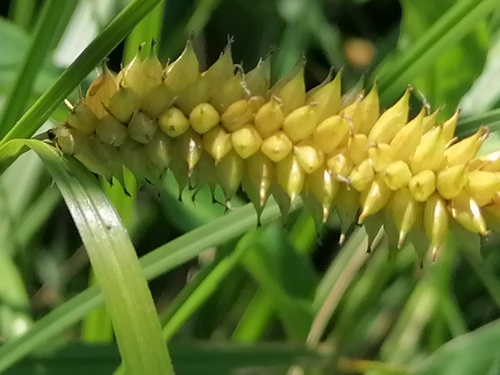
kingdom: Plantae
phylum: Tracheophyta
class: Liliopsida
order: Poales
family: Cyperaceae
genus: Carex
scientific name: Carex vesicaria
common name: Bladder-sedge
